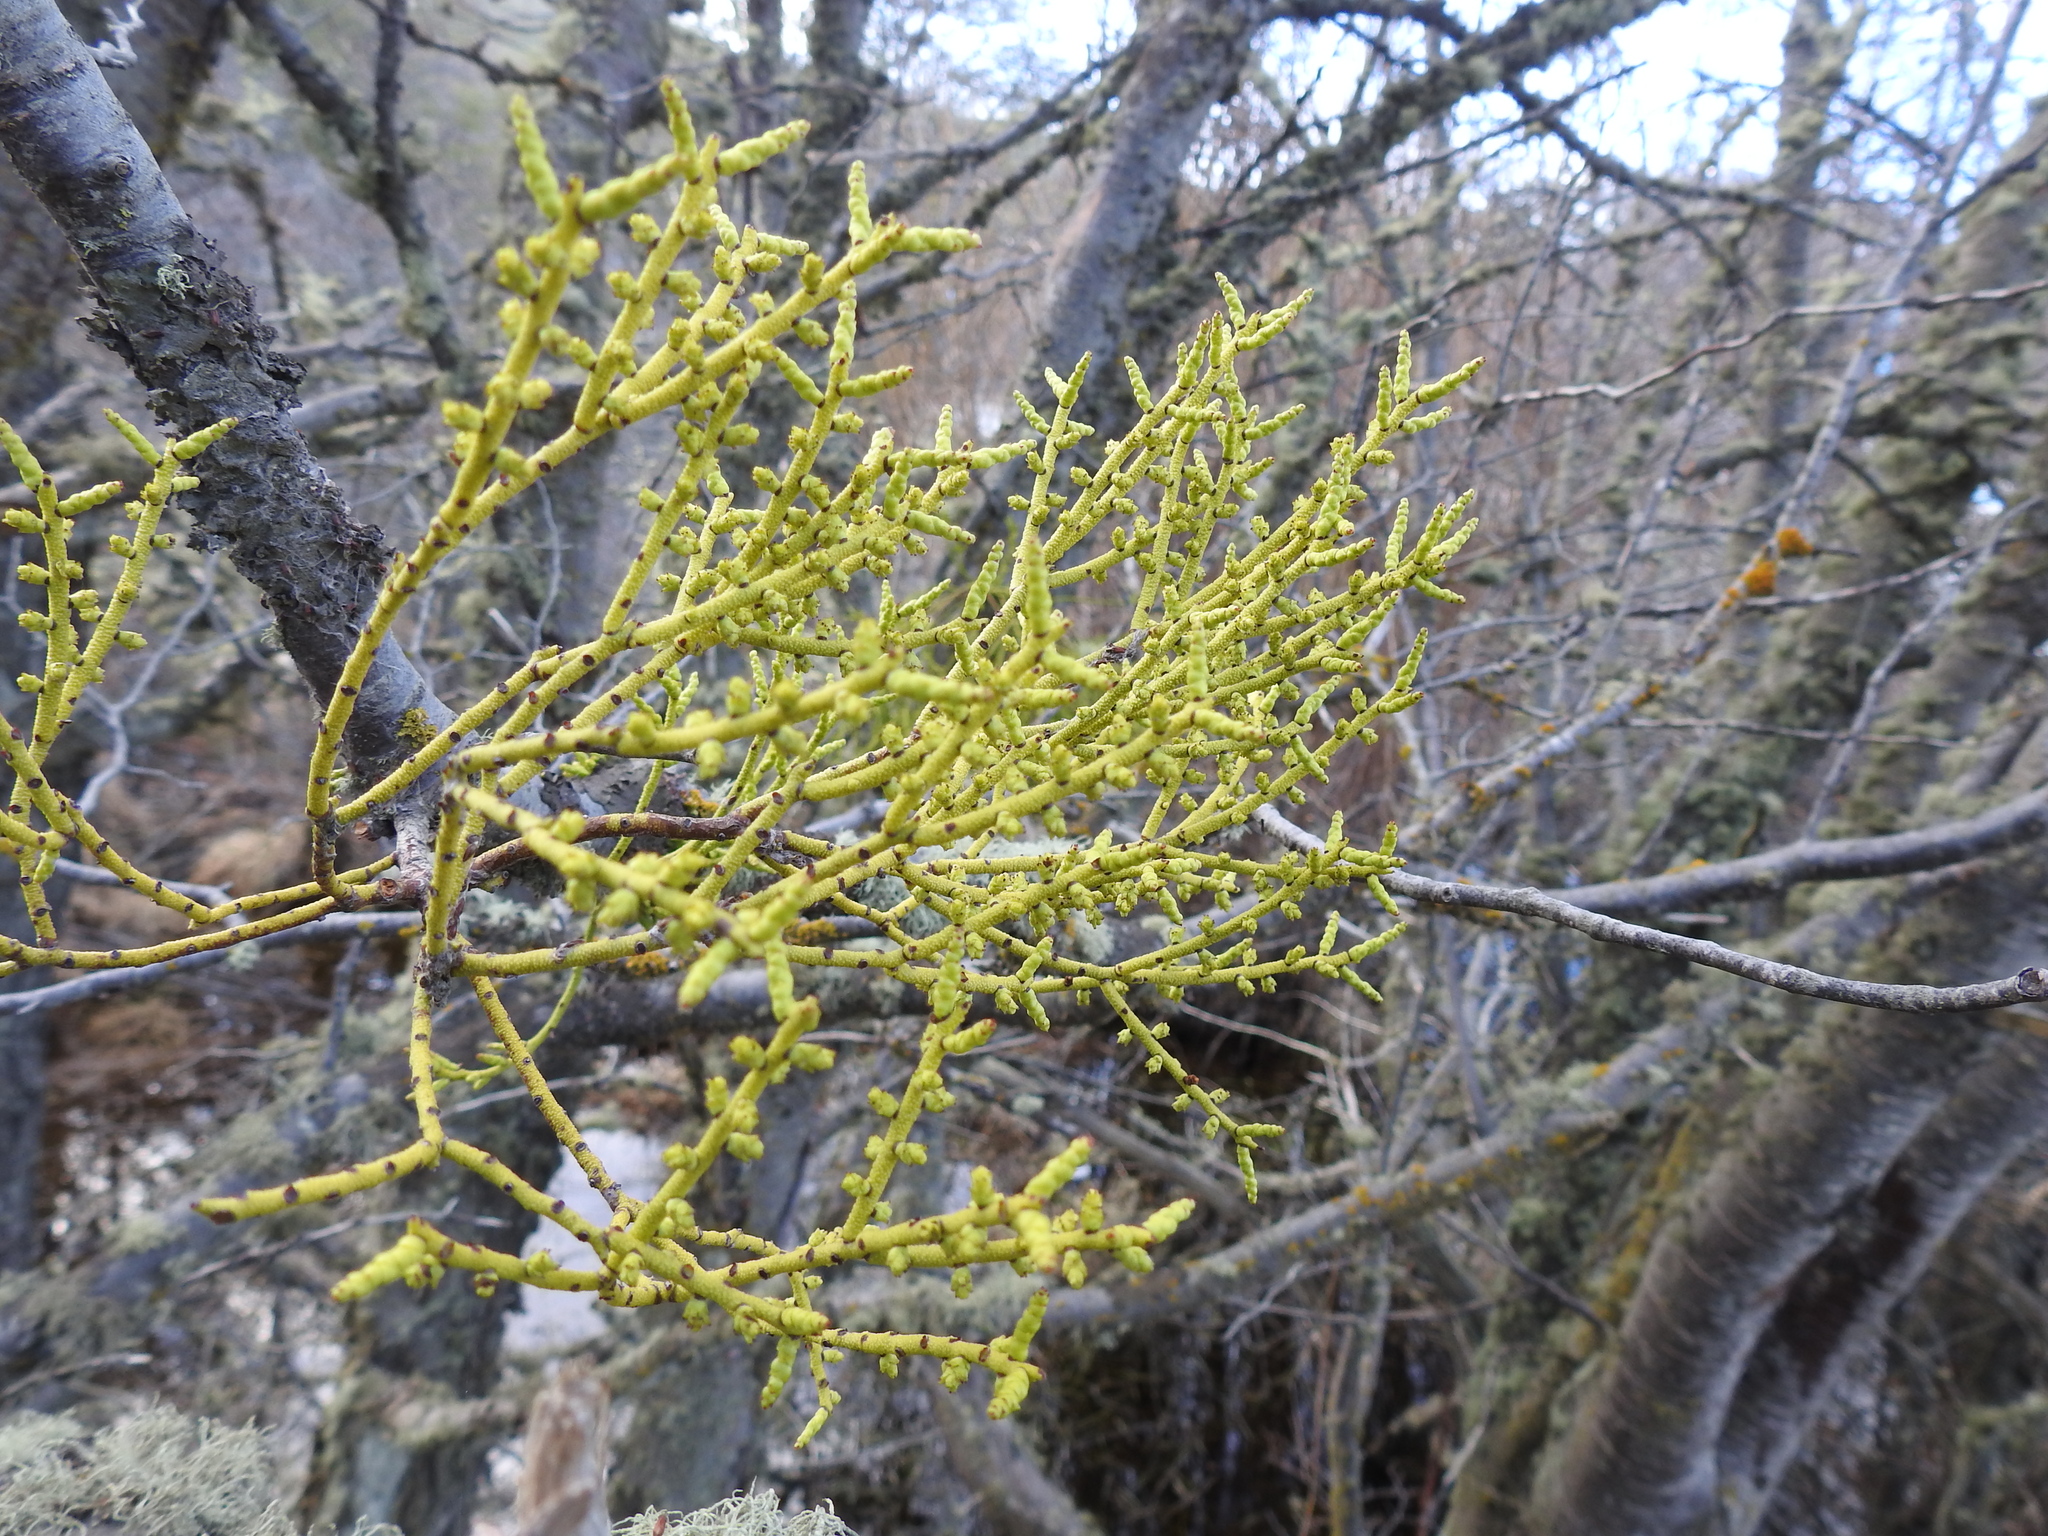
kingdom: Plantae
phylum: Tracheophyta
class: Magnoliopsida
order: Santalales
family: Misodendraceae
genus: Misodendrum
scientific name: Misodendrum punctulatum
